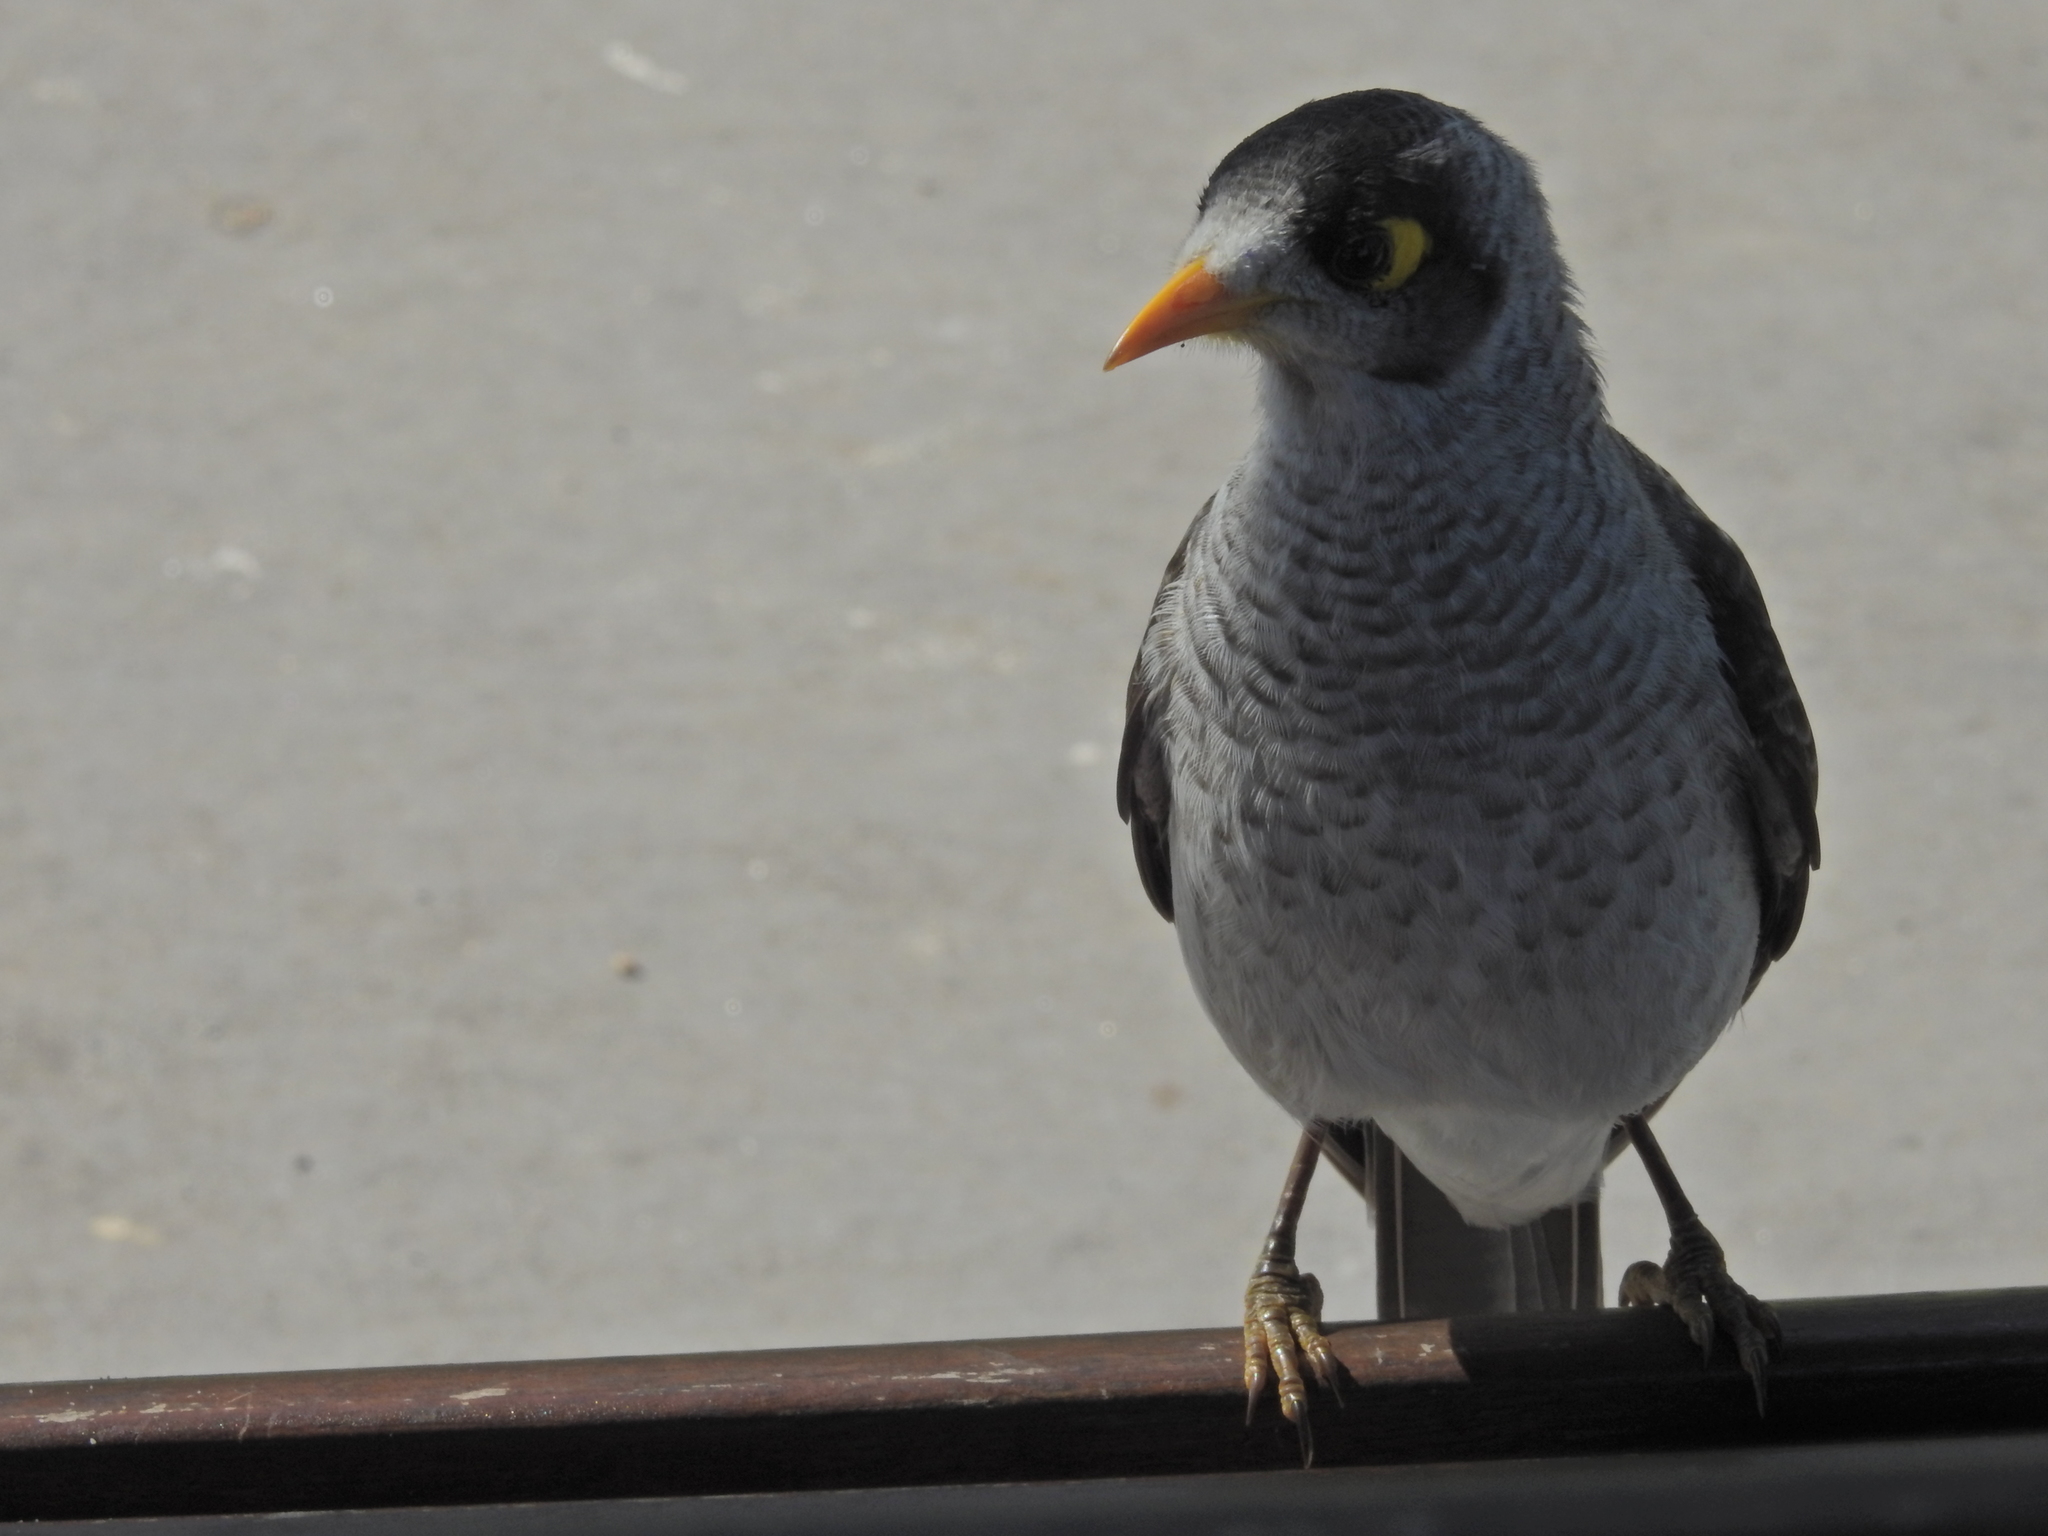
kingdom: Animalia
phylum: Chordata
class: Aves
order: Passeriformes
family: Meliphagidae
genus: Manorina
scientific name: Manorina melanocephala
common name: Noisy miner
